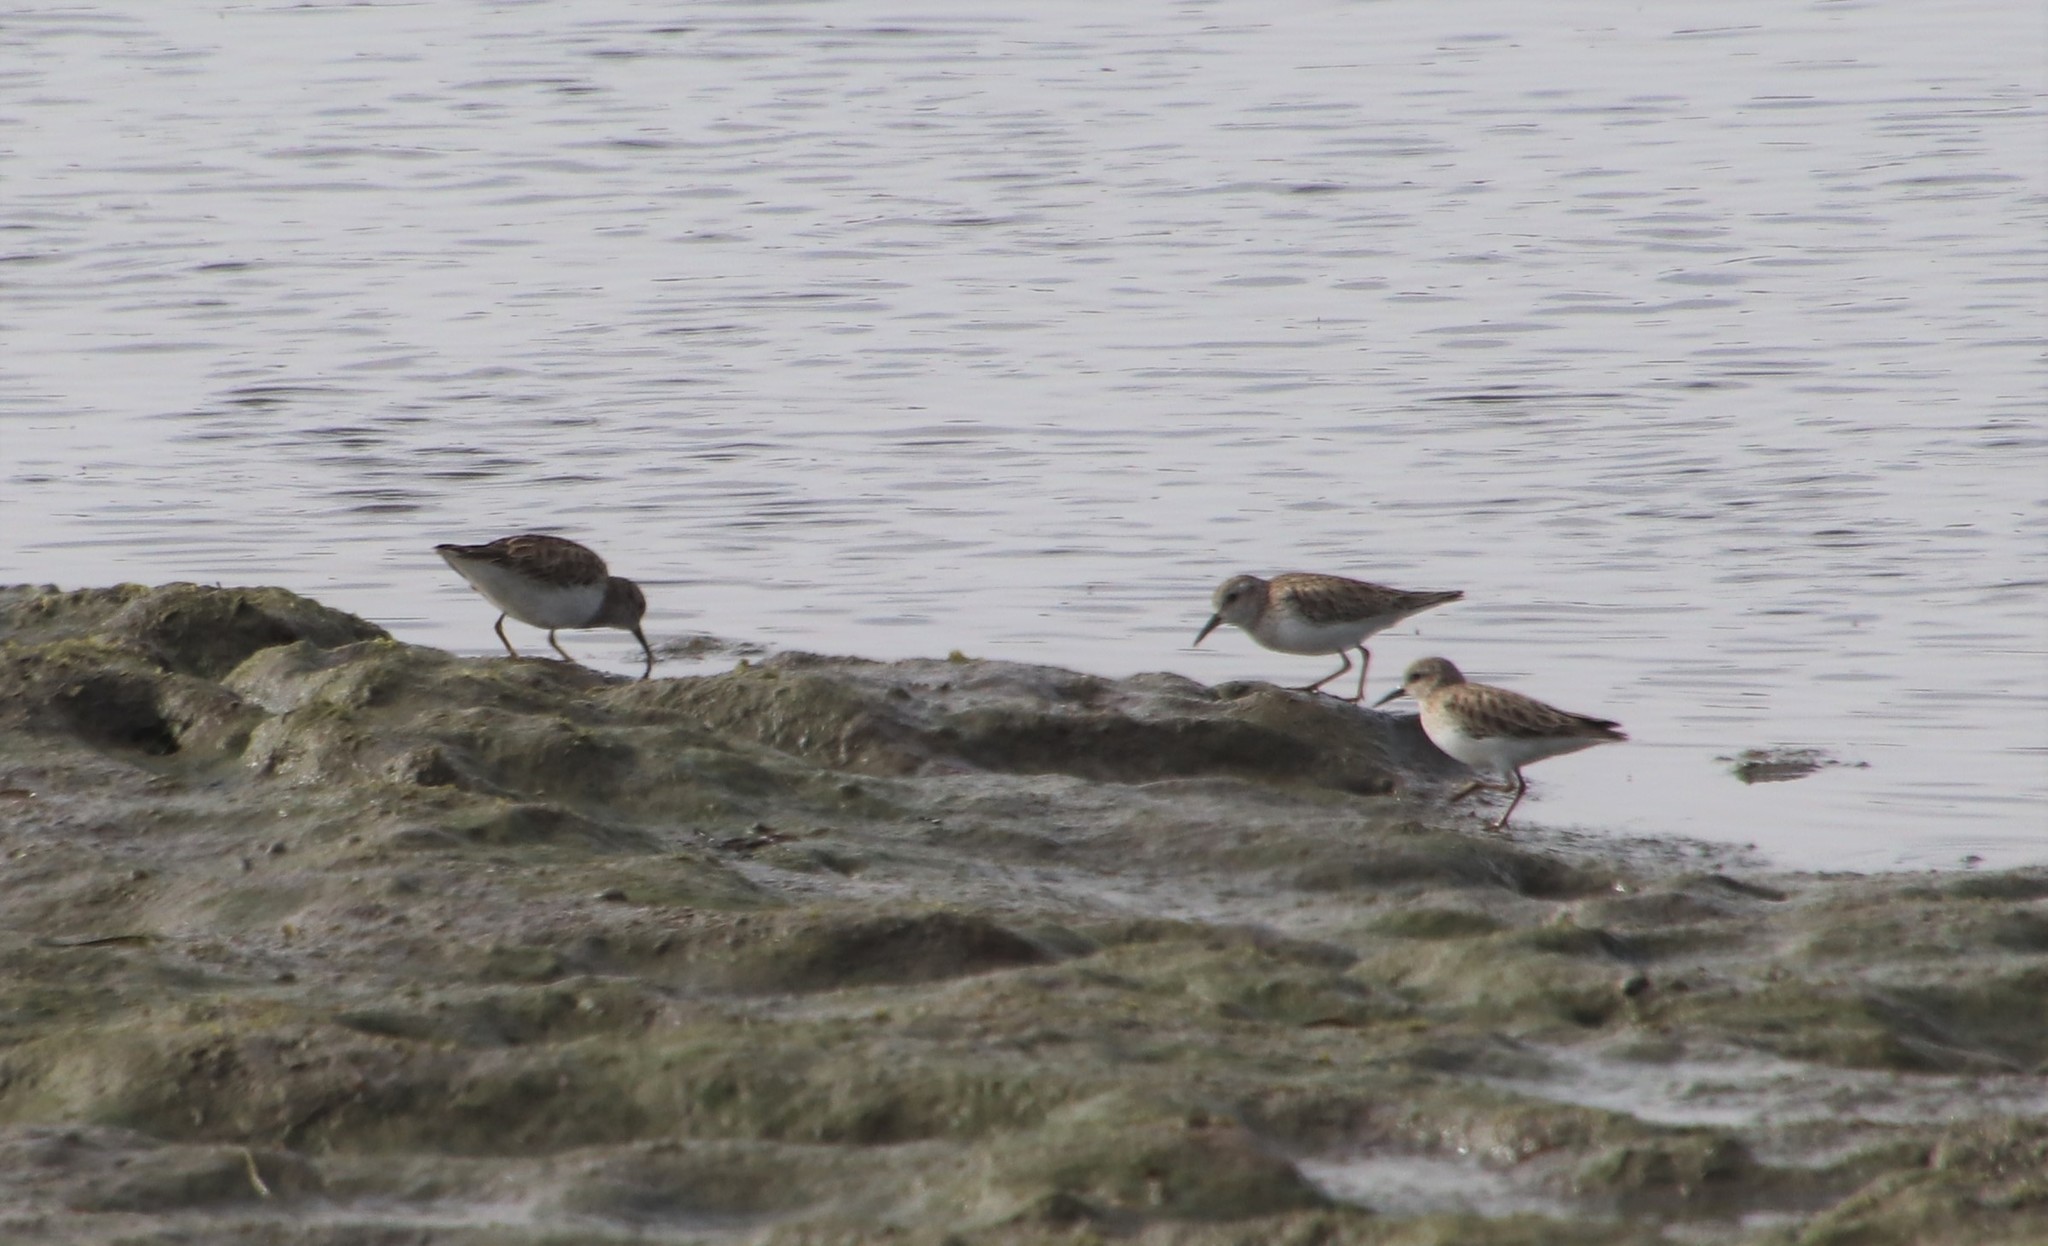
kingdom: Animalia
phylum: Chordata
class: Aves
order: Charadriiformes
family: Scolopacidae
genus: Calidris
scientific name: Calidris minutilla
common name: Least sandpiper
